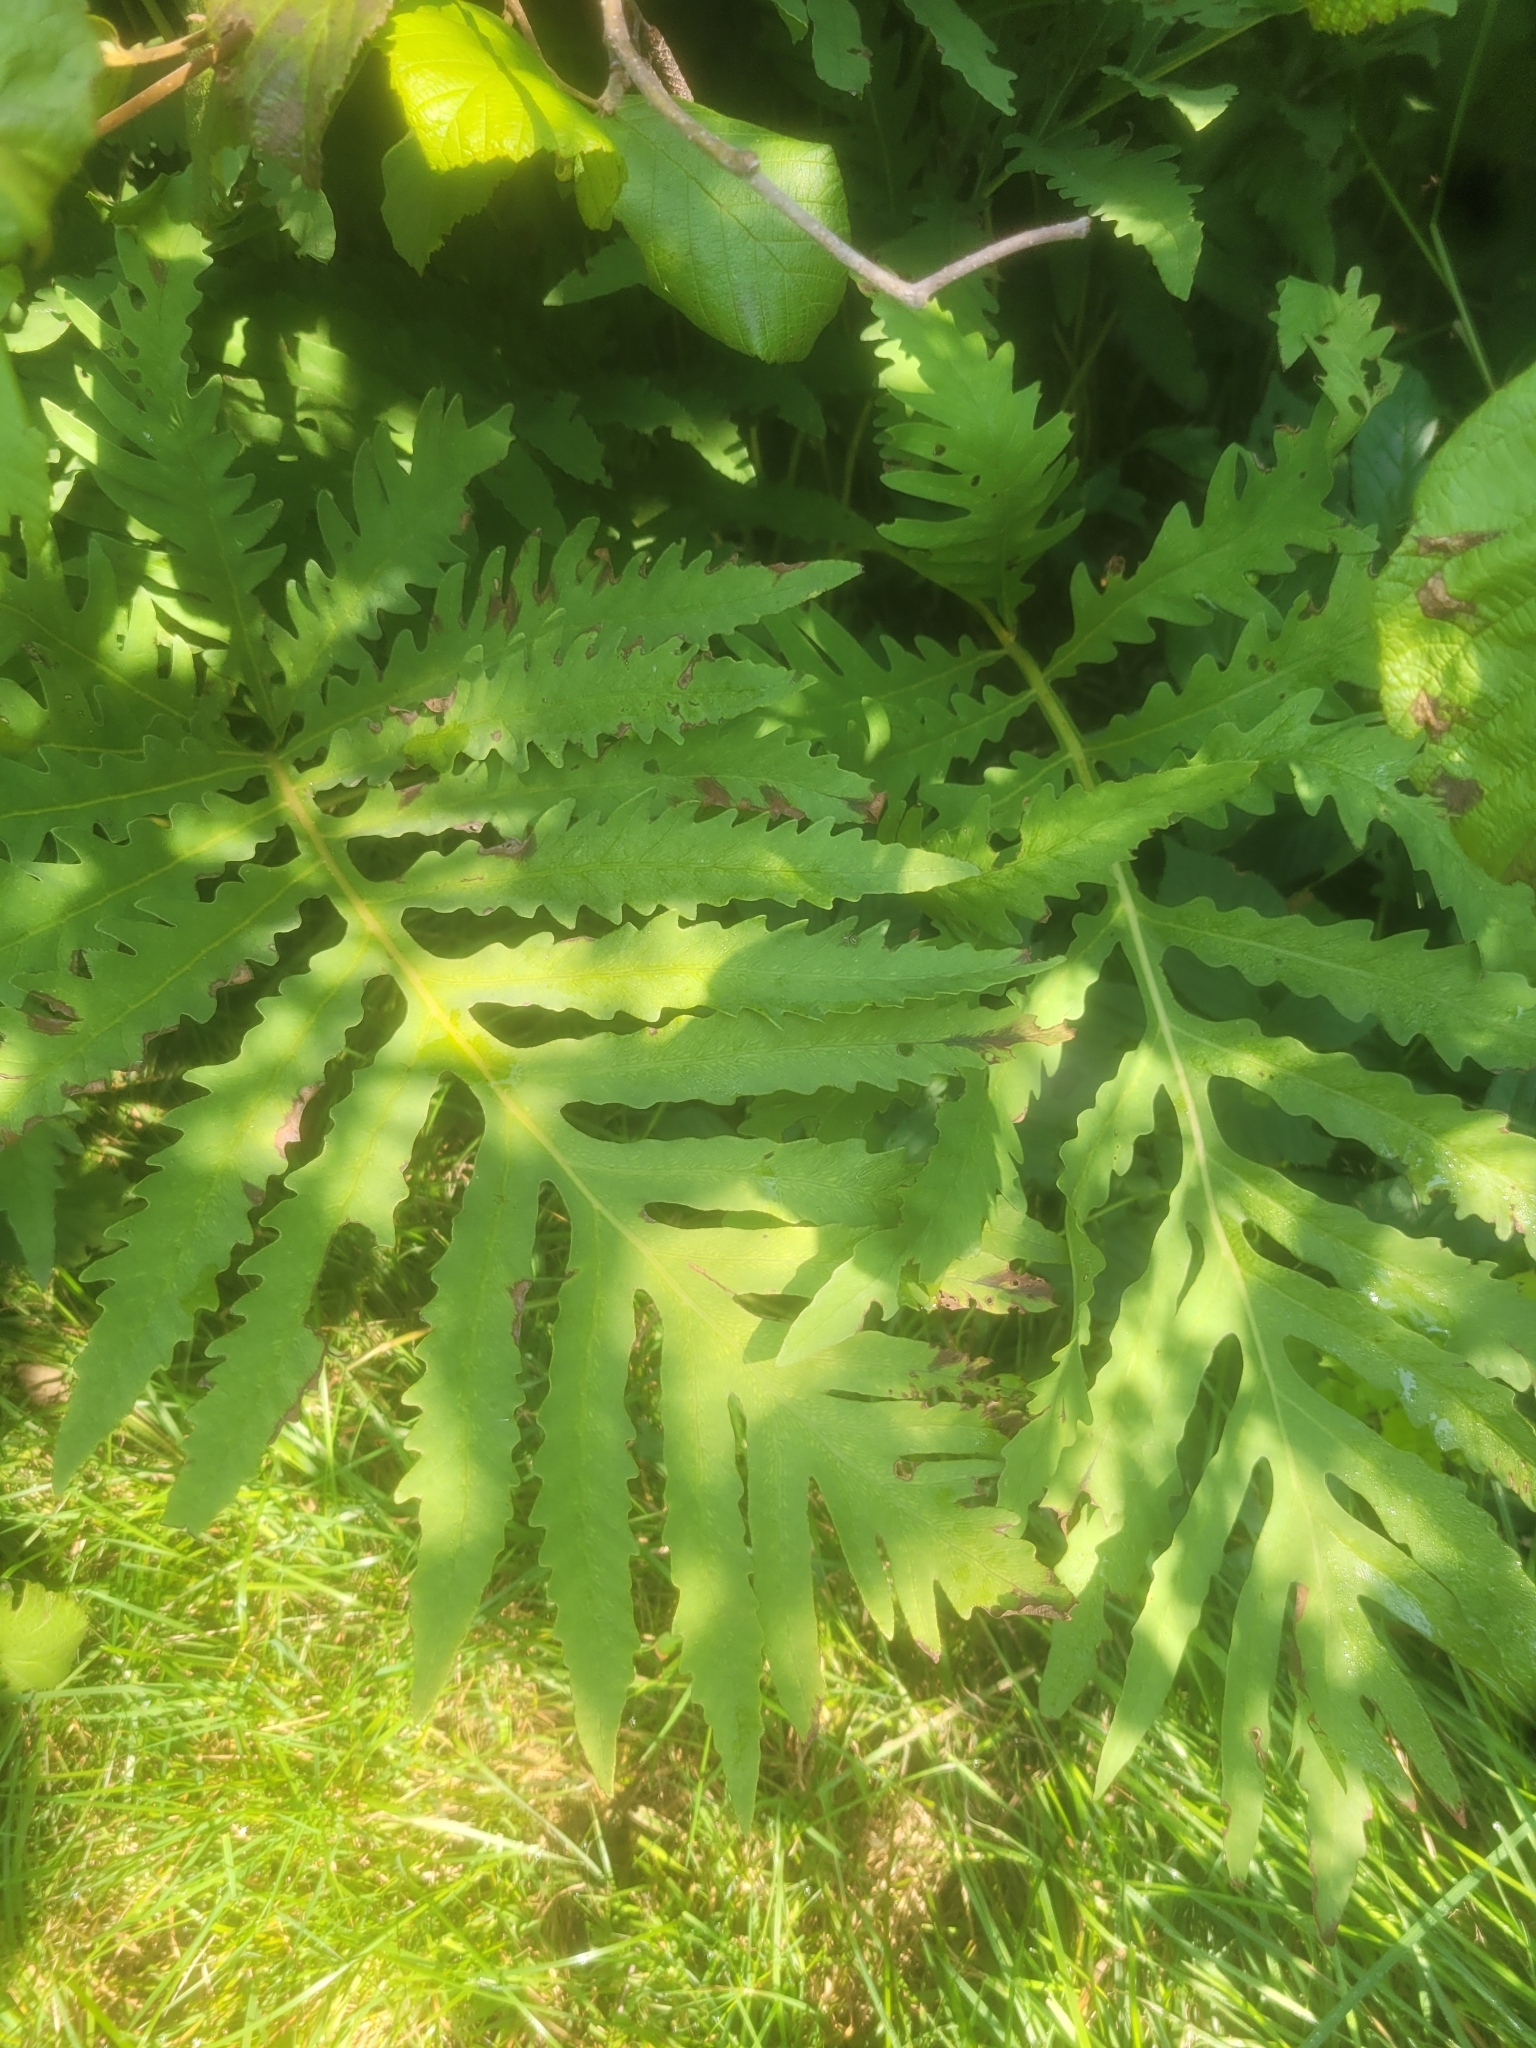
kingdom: Plantae
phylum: Tracheophyta
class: Polypodiopsida
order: Polypodiales
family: Onocleaceae
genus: Onoclea
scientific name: Onoclea sensibilis
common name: Sensitive fern
